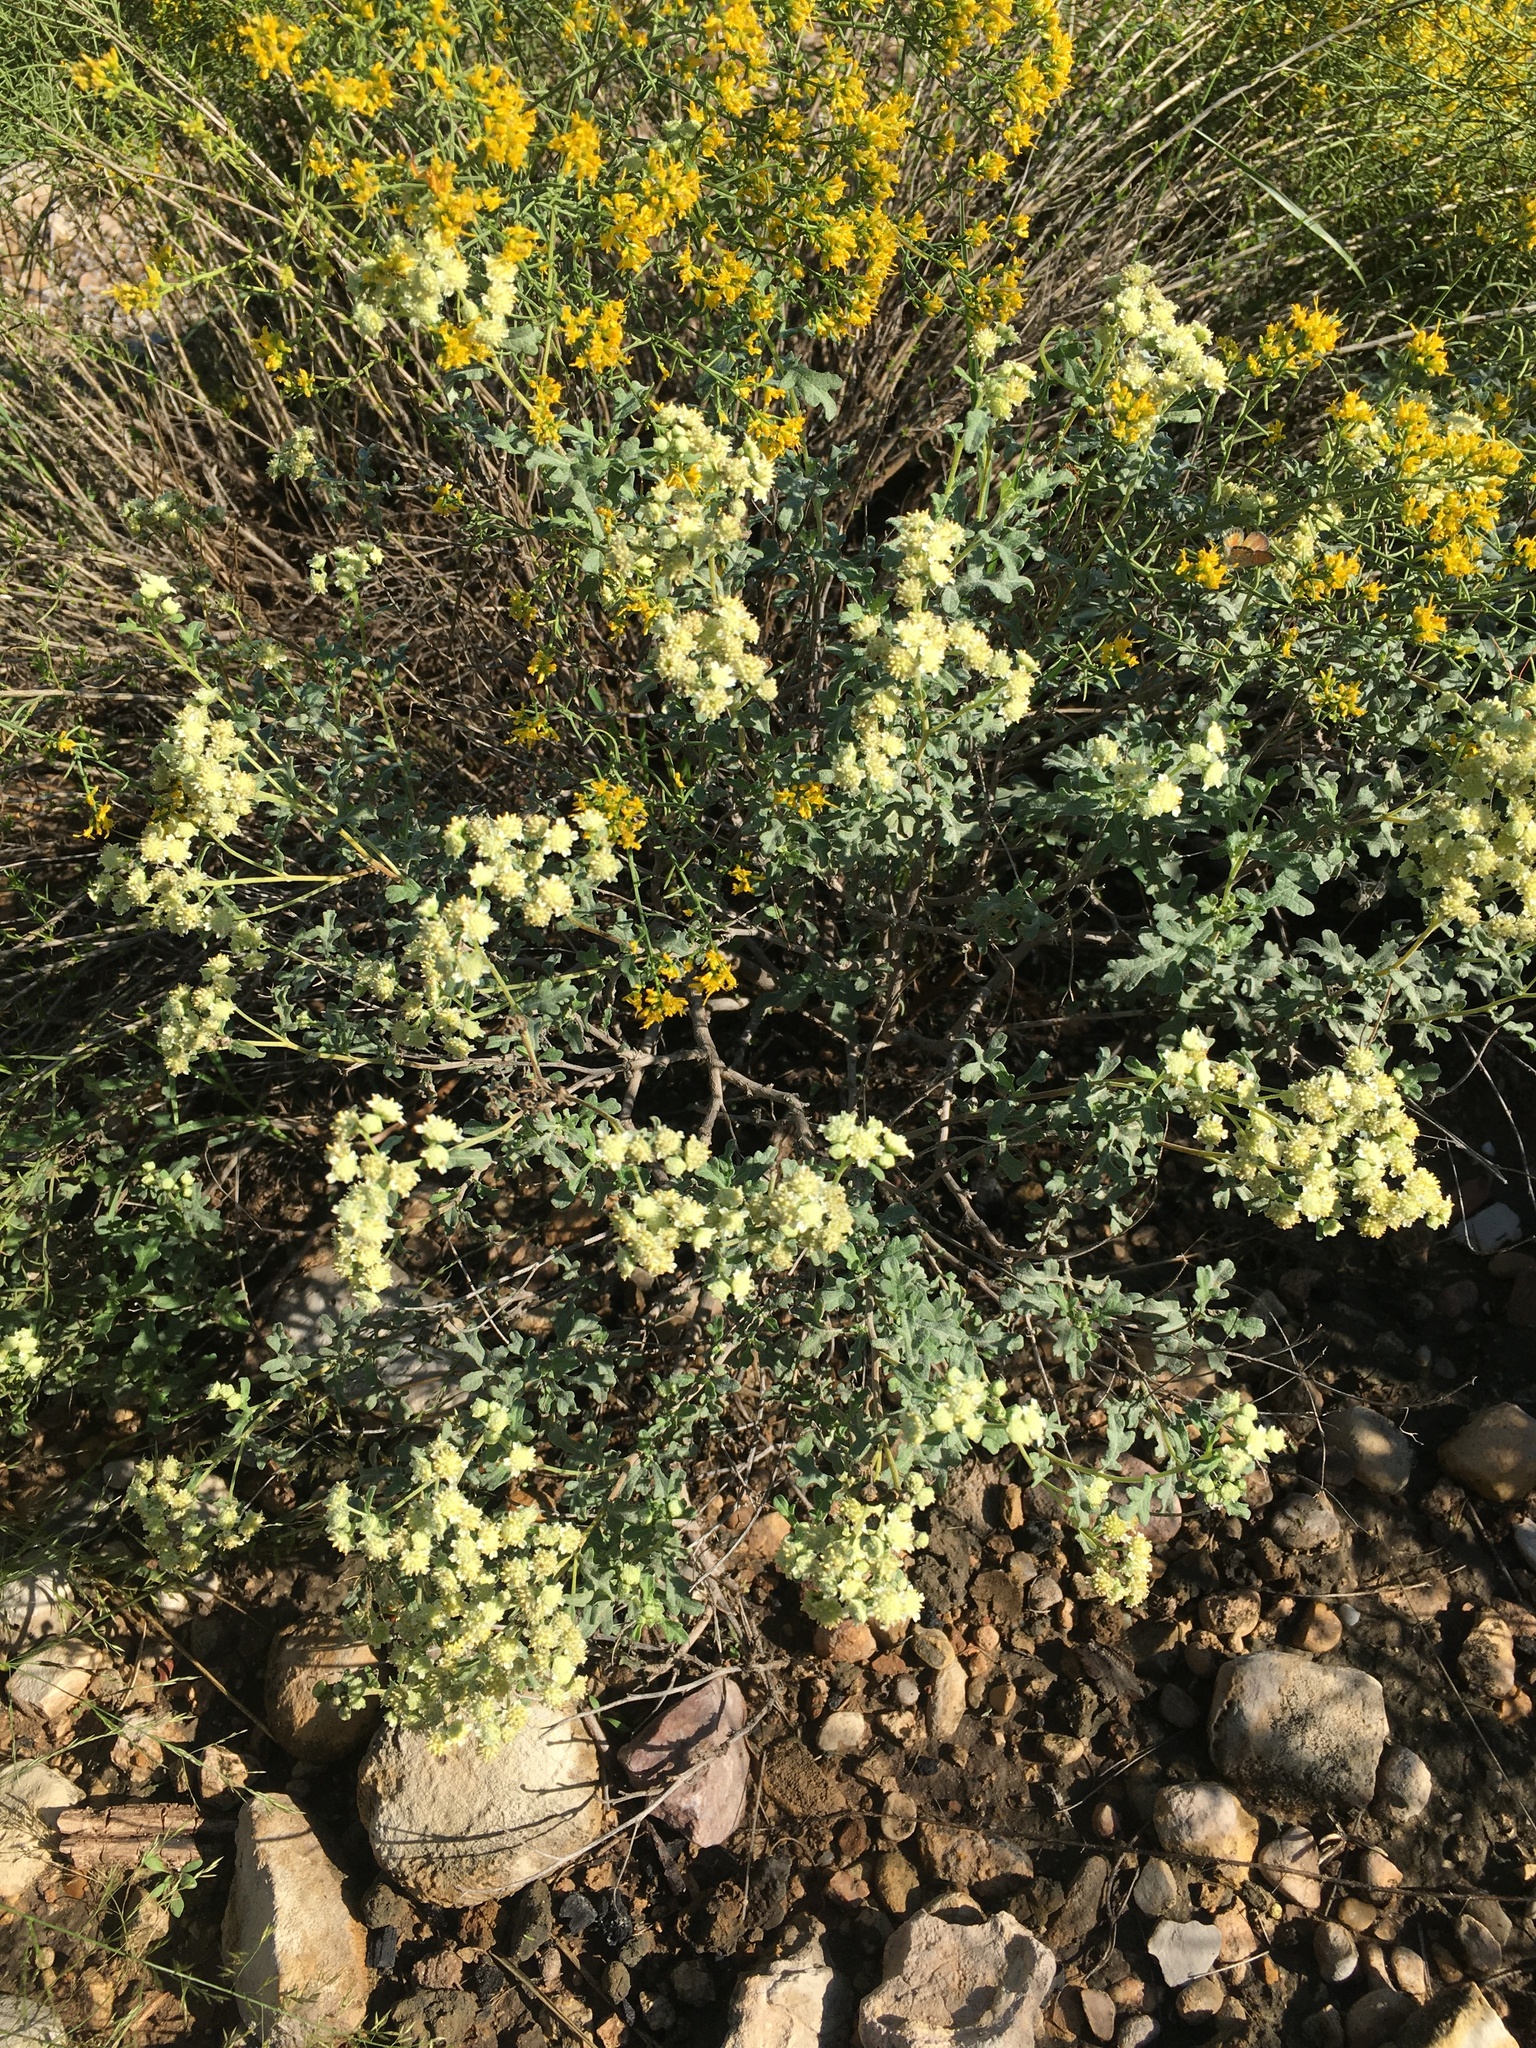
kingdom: Plantae
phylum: Tracheophyta
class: Magnoliopsida
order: Asterales
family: Asteraceae
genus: Parthenium
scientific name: Parthenium incanum
